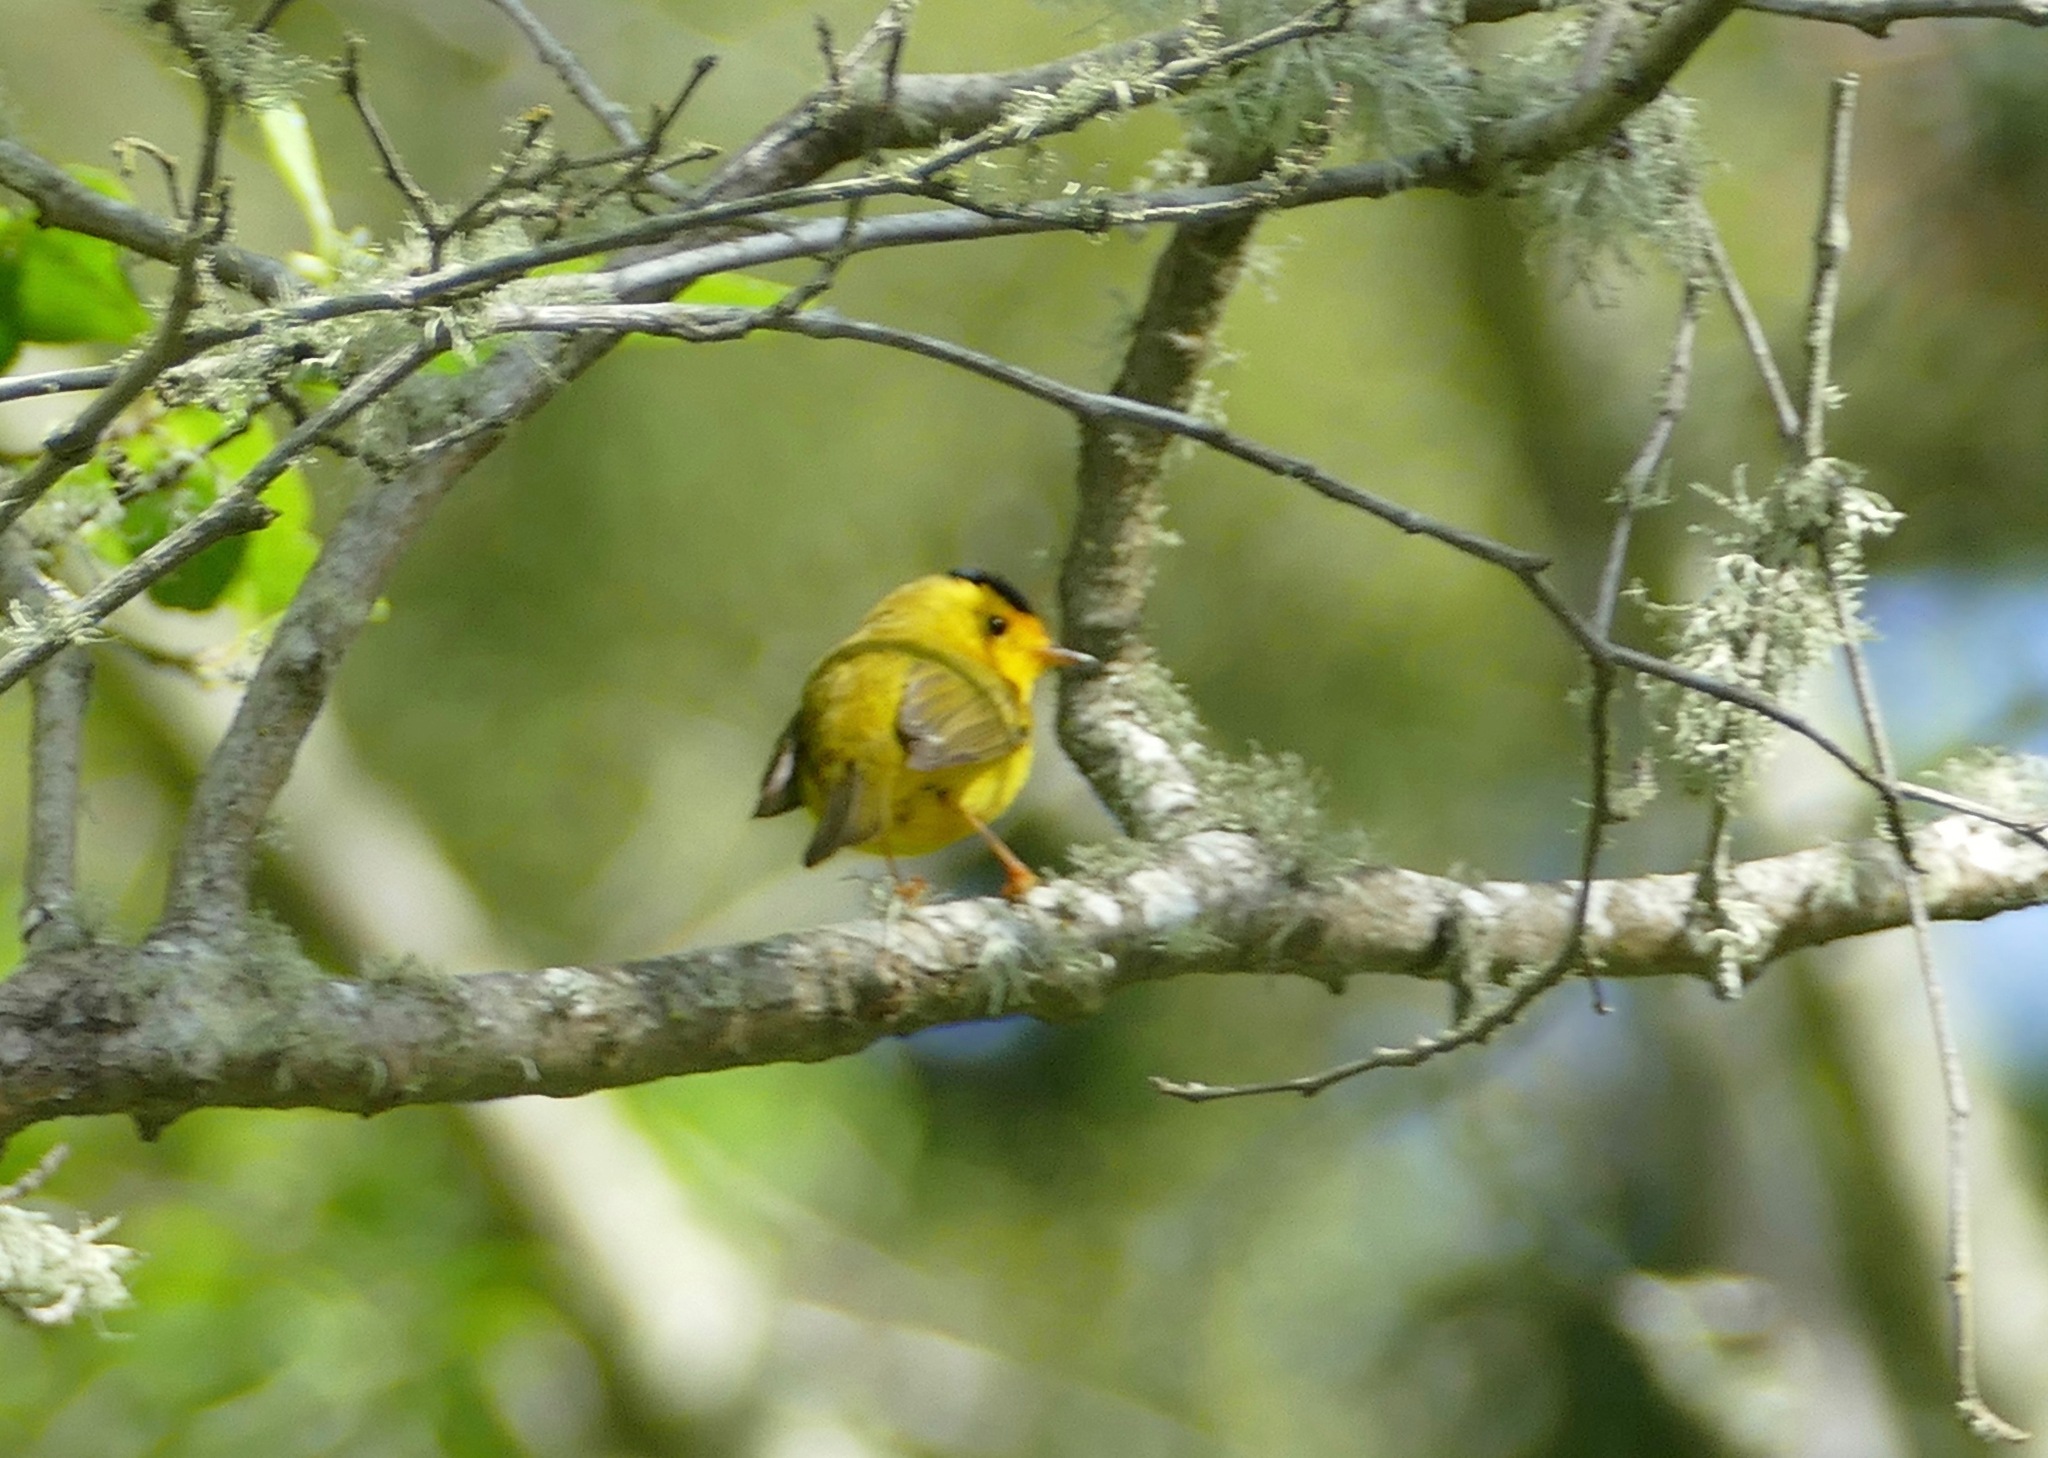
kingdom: Animalia
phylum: Chordata
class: Aves
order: Passeriformes
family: Parulidae
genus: Cardellina
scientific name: Cardellina pusilla
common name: Wilson's warbler
